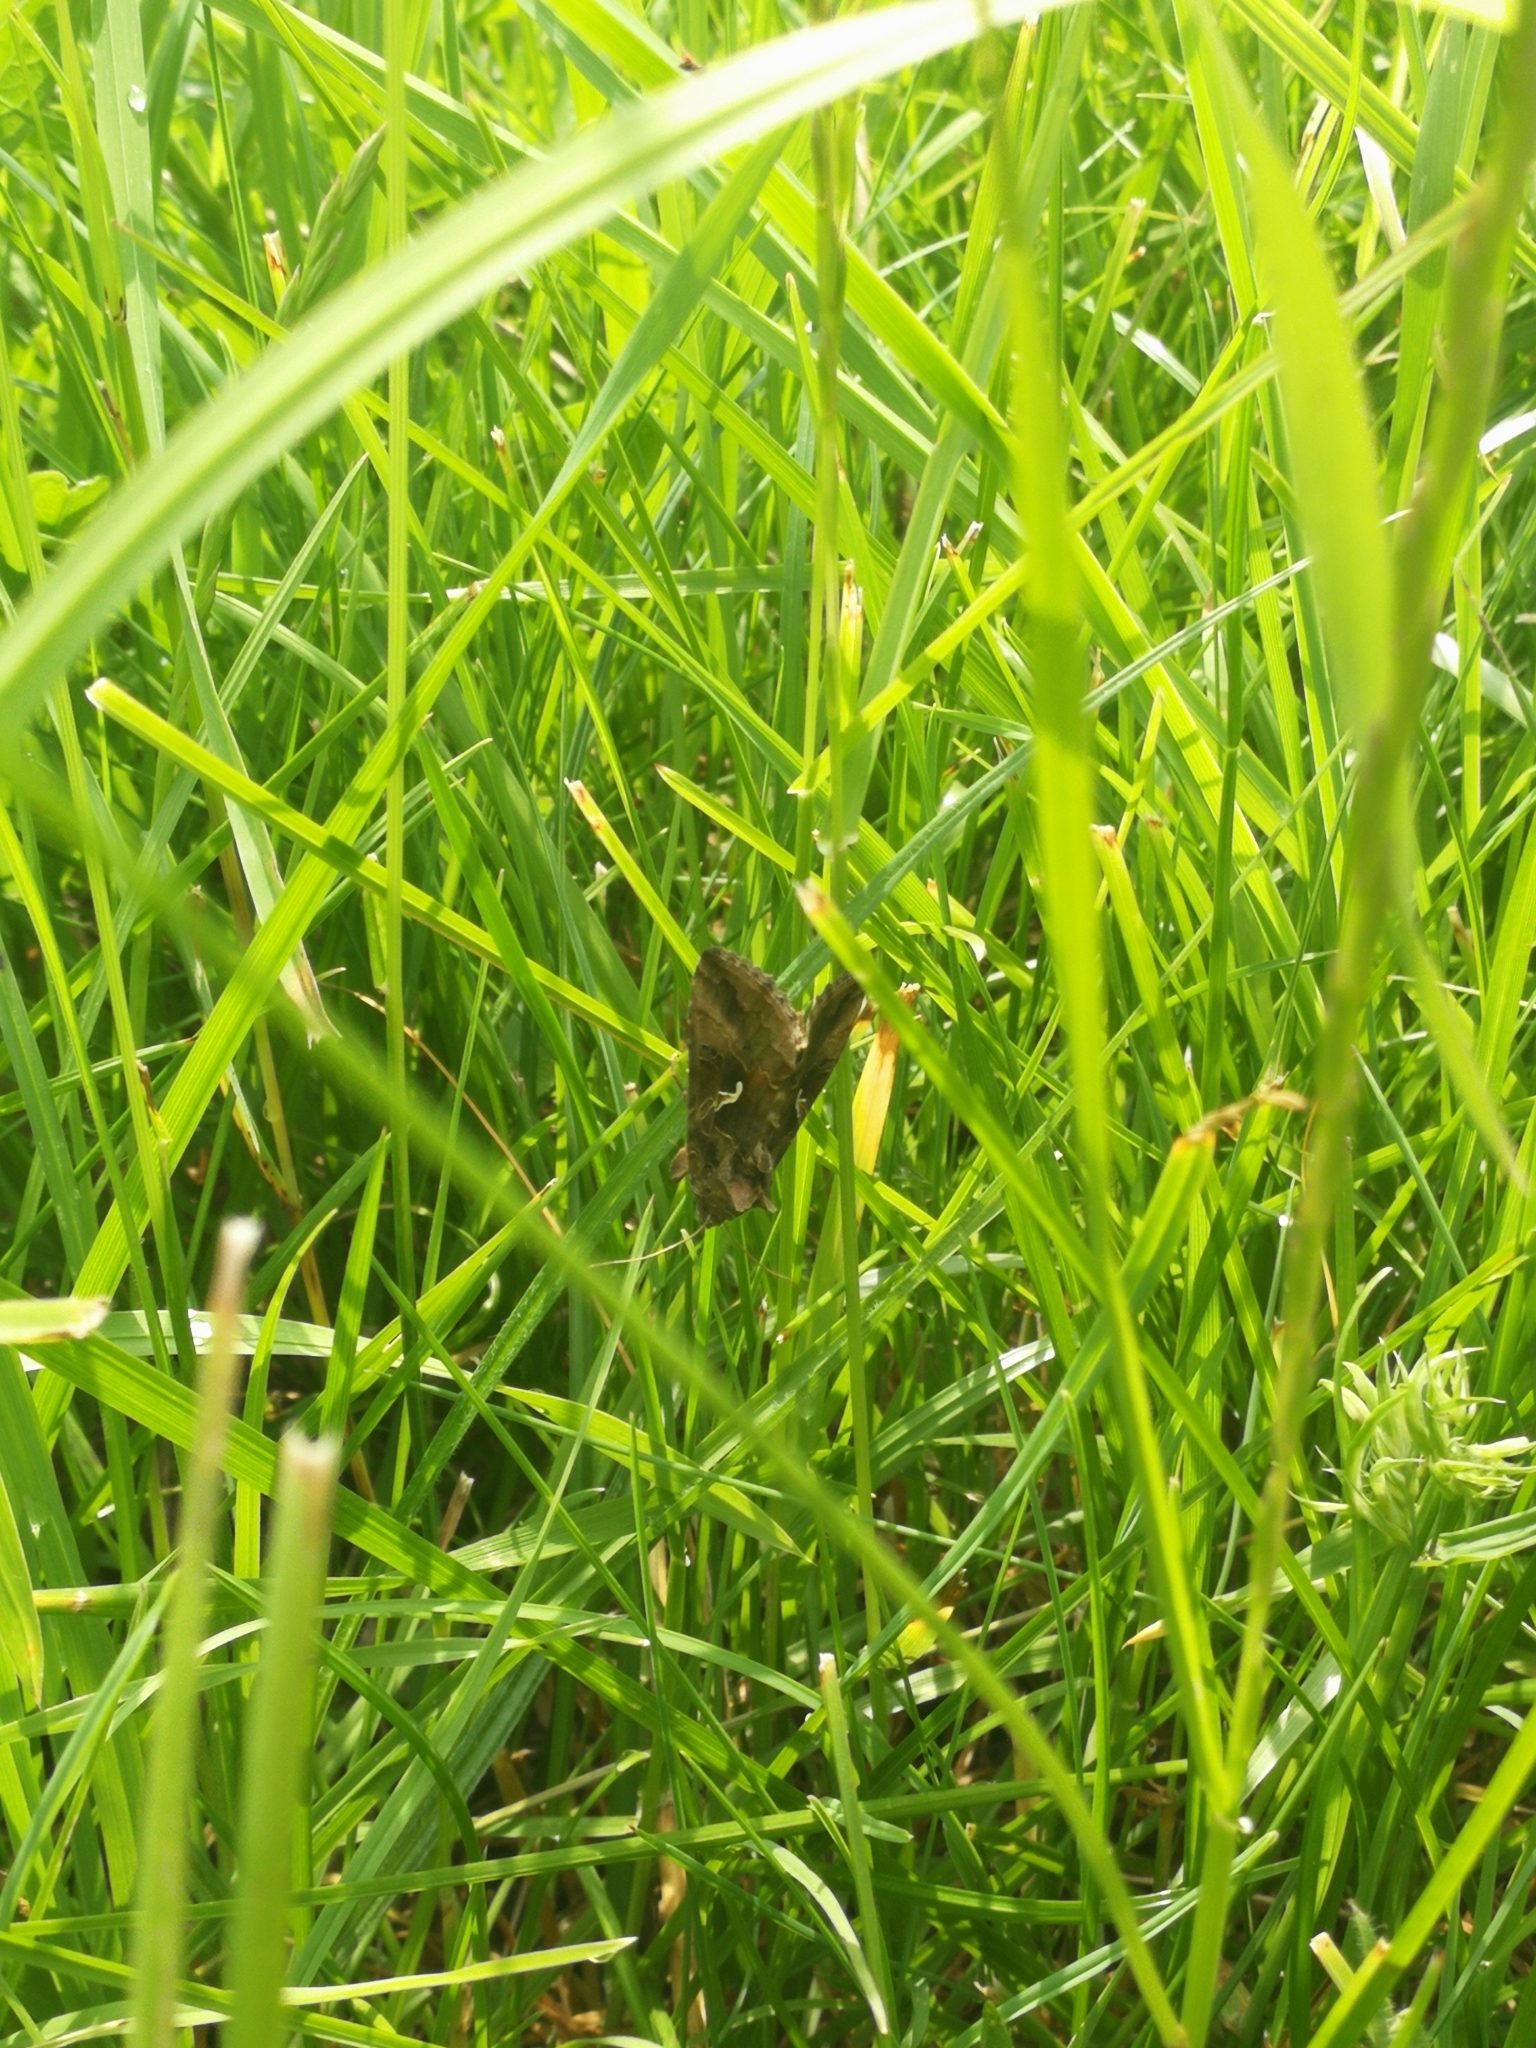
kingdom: Animalia
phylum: Arthropoda
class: Insecta
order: Lepidoptera
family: Noctuidae
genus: Autographa
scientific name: Autographa gamma
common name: Silver y
